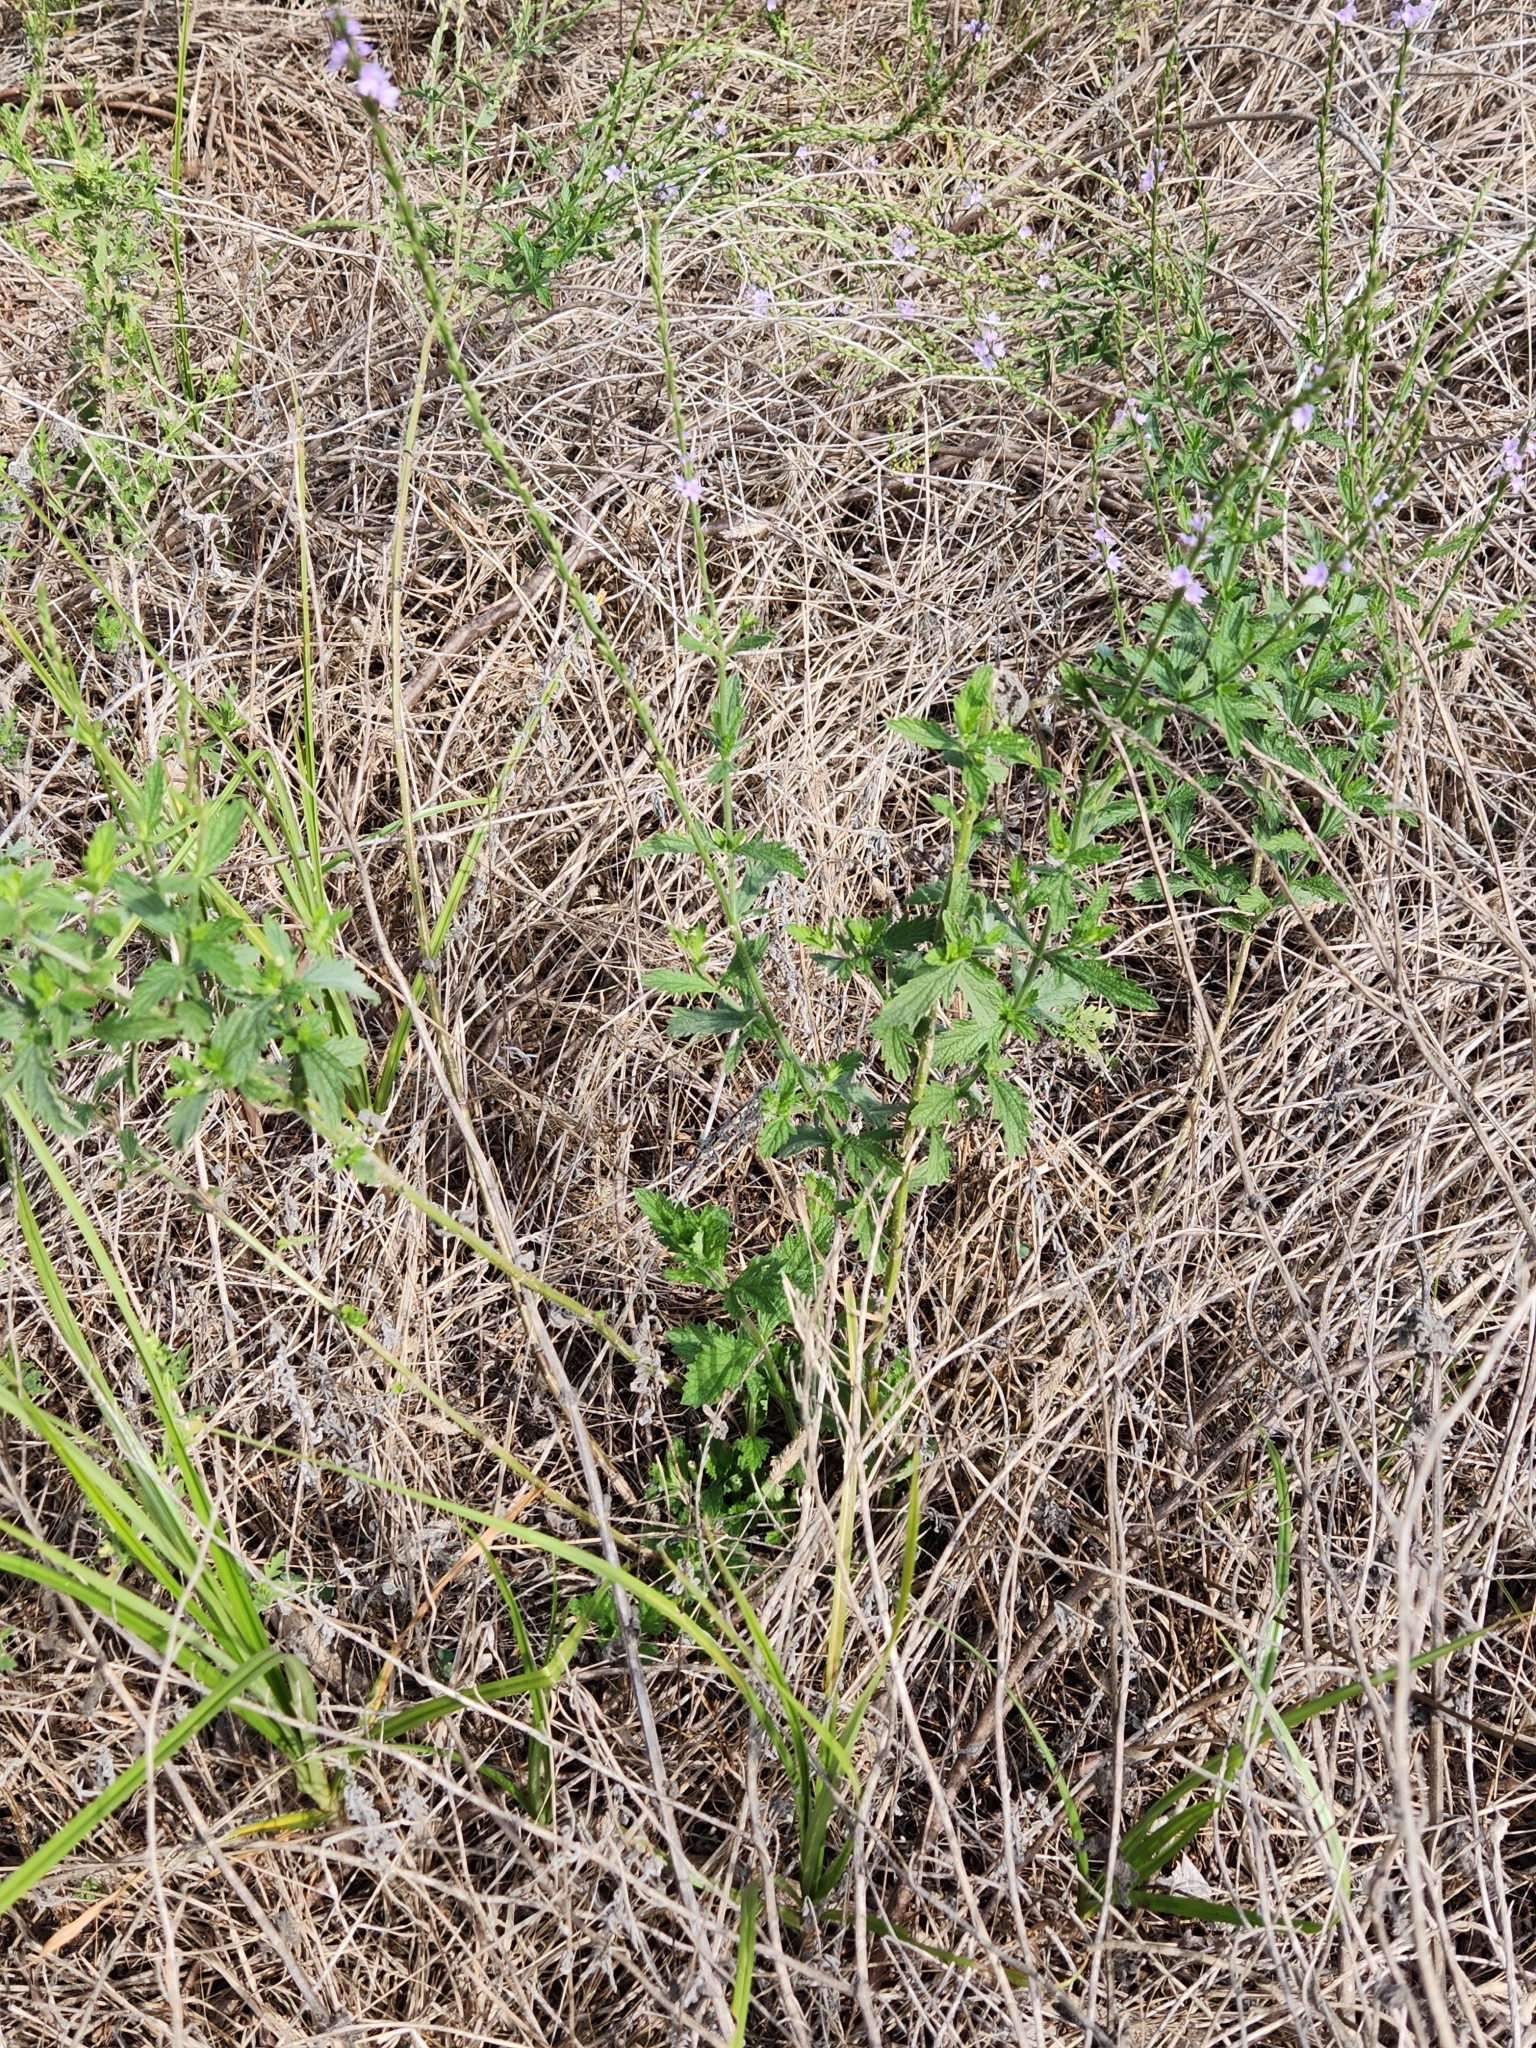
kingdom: Plantae
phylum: Tracheophyta
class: Magnoliopsida
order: Lamiales
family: Verbenaceae
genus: Verbena
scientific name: Verbena xutha
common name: Gulf vervain
